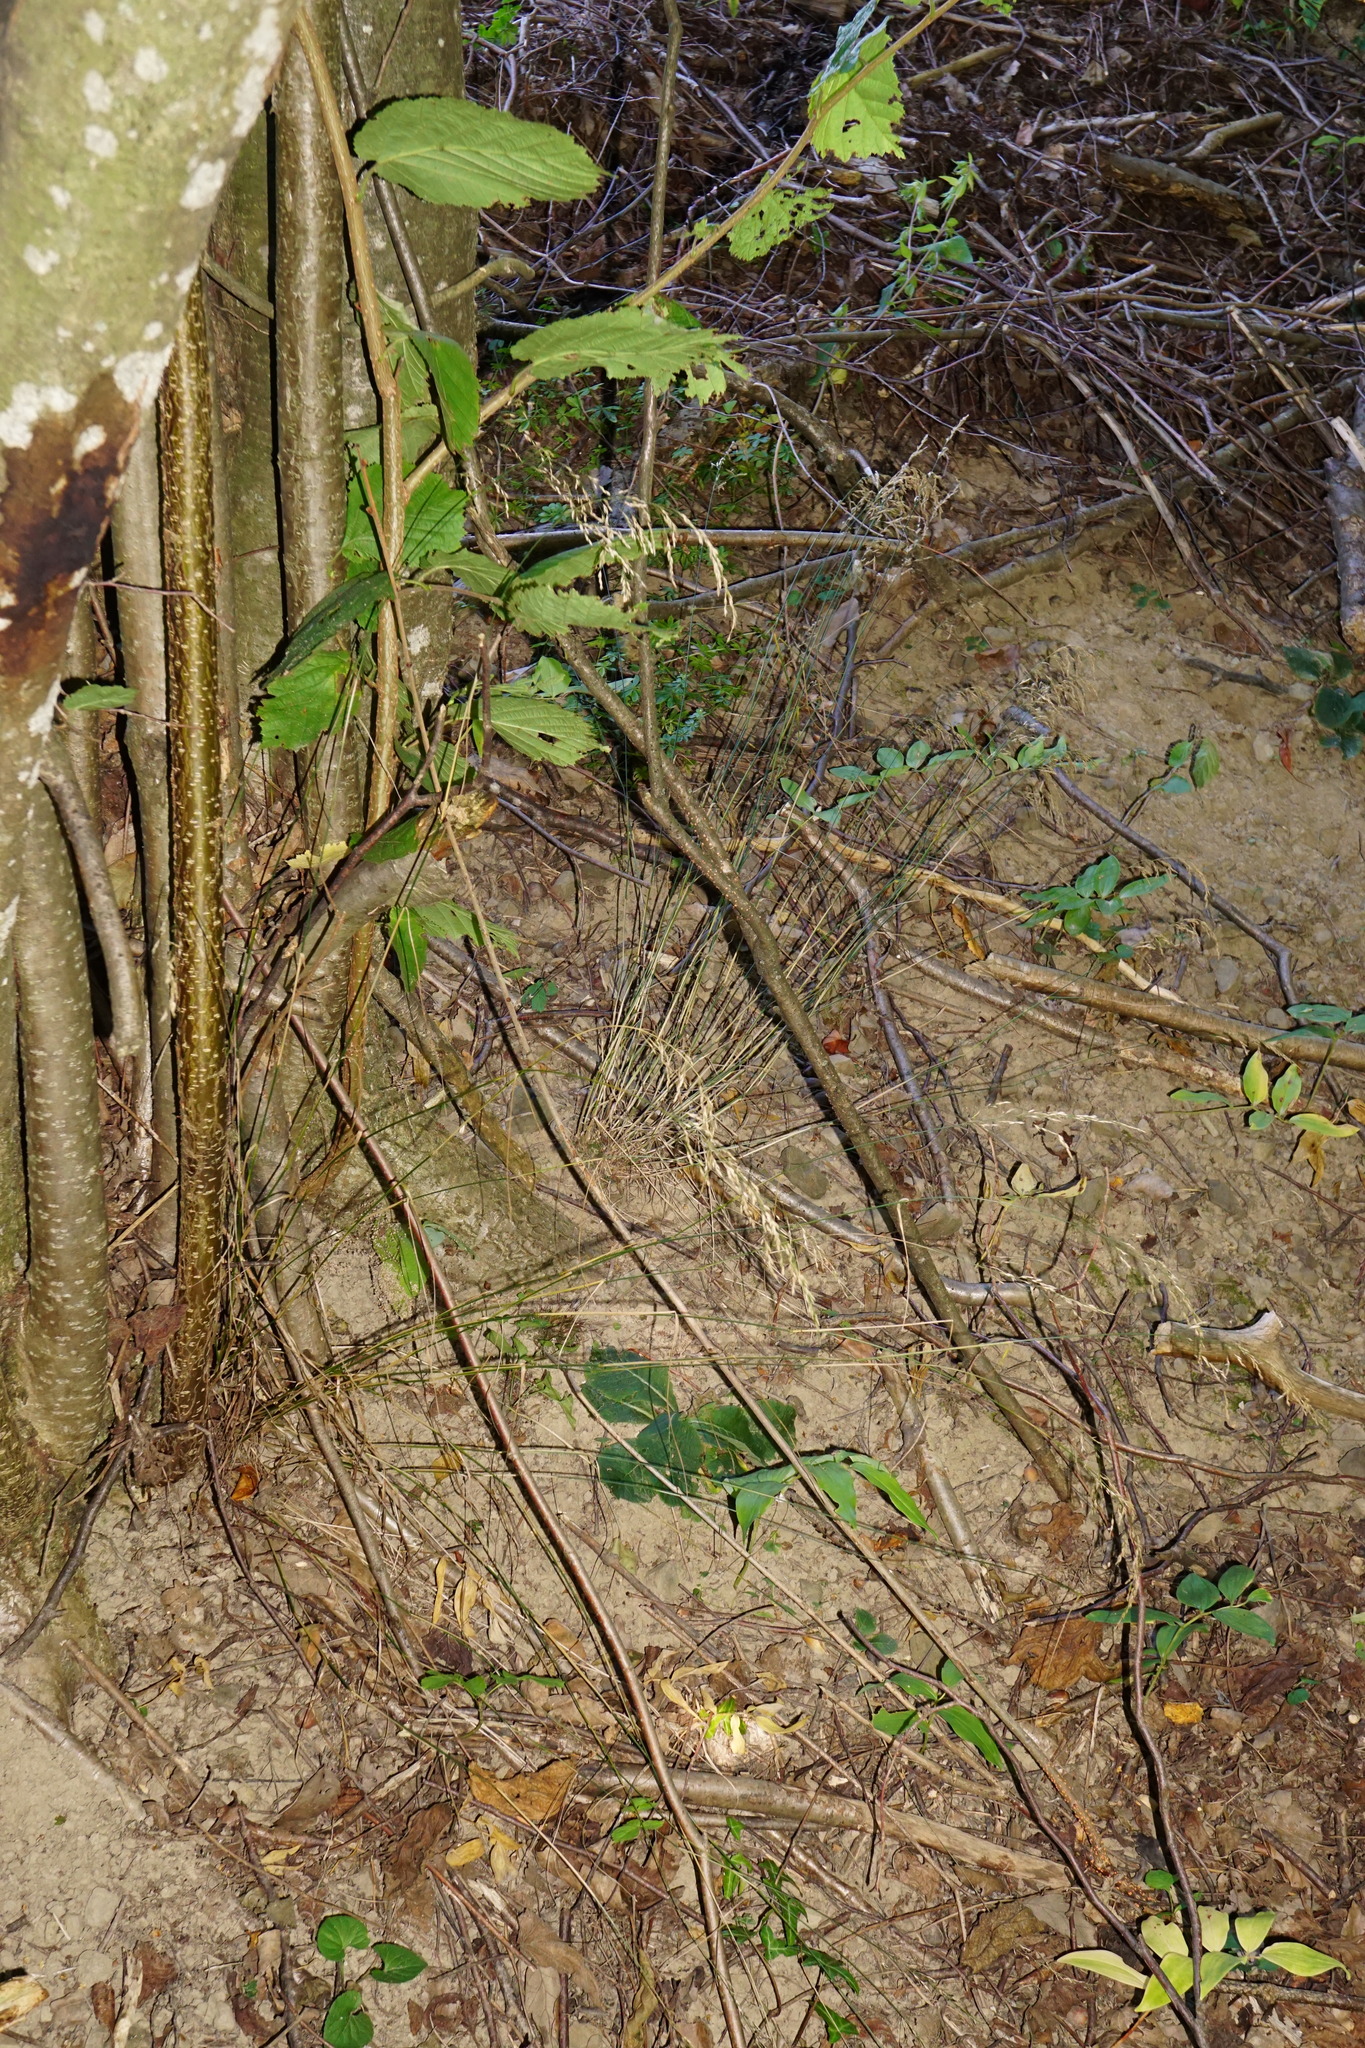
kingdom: Plantae
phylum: Tracheophyta
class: Liliopsida
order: Poales
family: Poaceae
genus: Poa
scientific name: Poa nemoralis
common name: Wood bluegrass
